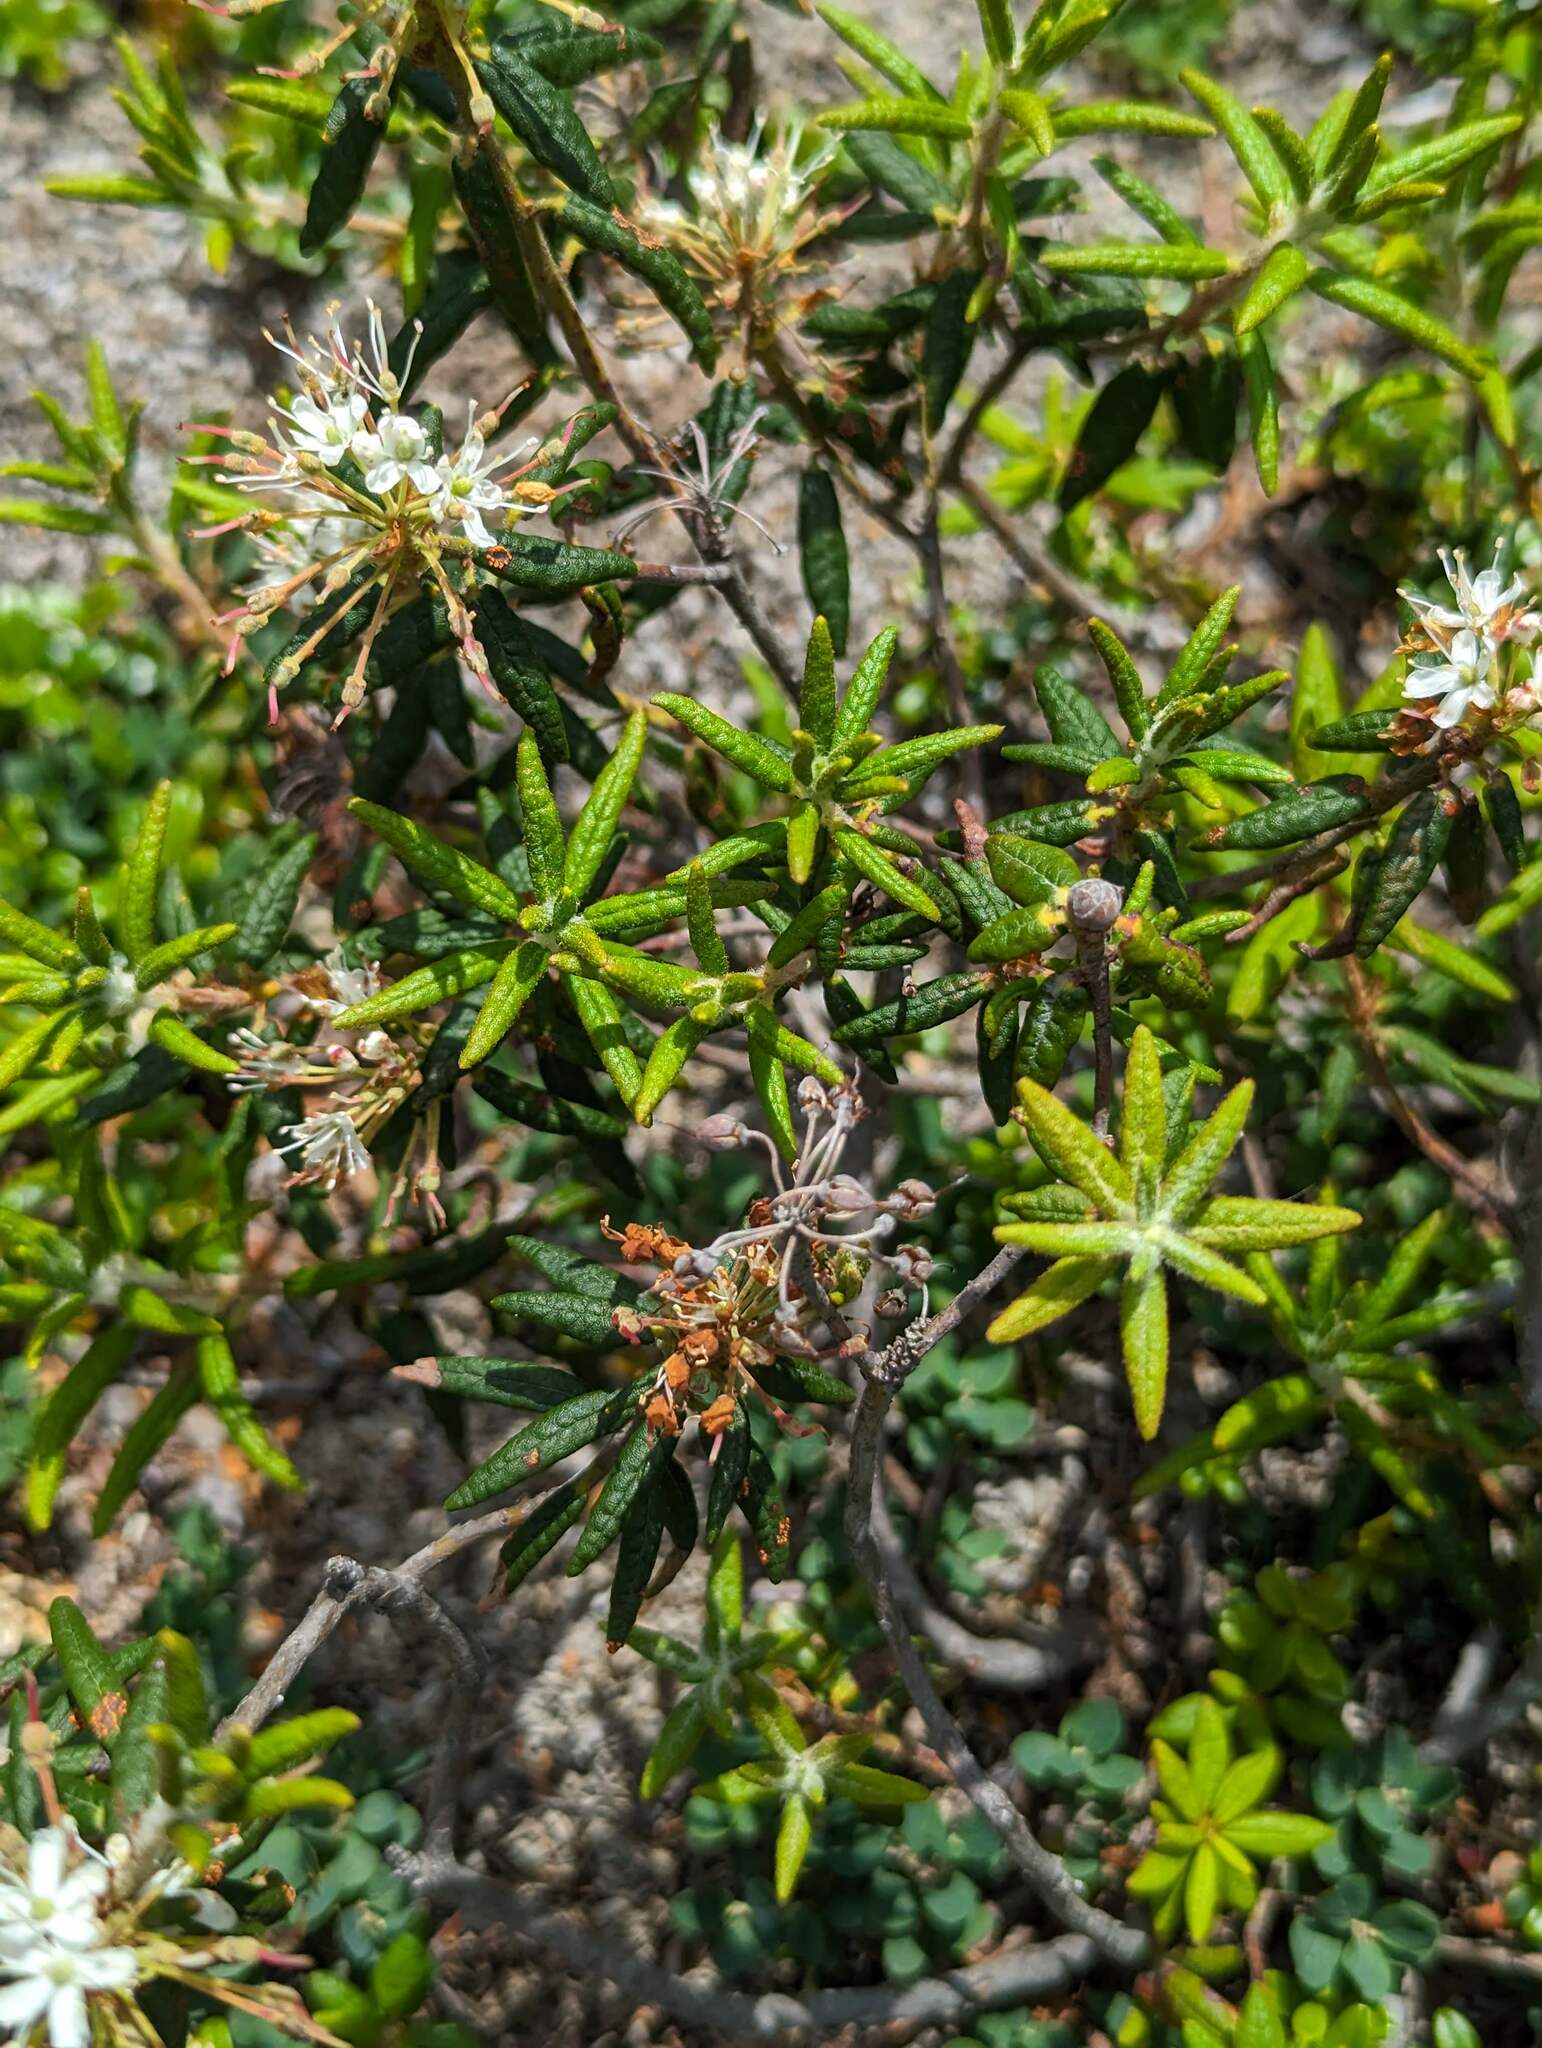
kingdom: Plantae
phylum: Tracheophyta
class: Magnoliopsida
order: Ericales
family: Ericaceae
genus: Rhododendron
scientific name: Rhododendron groenlandicum
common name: Bog labrador tea
